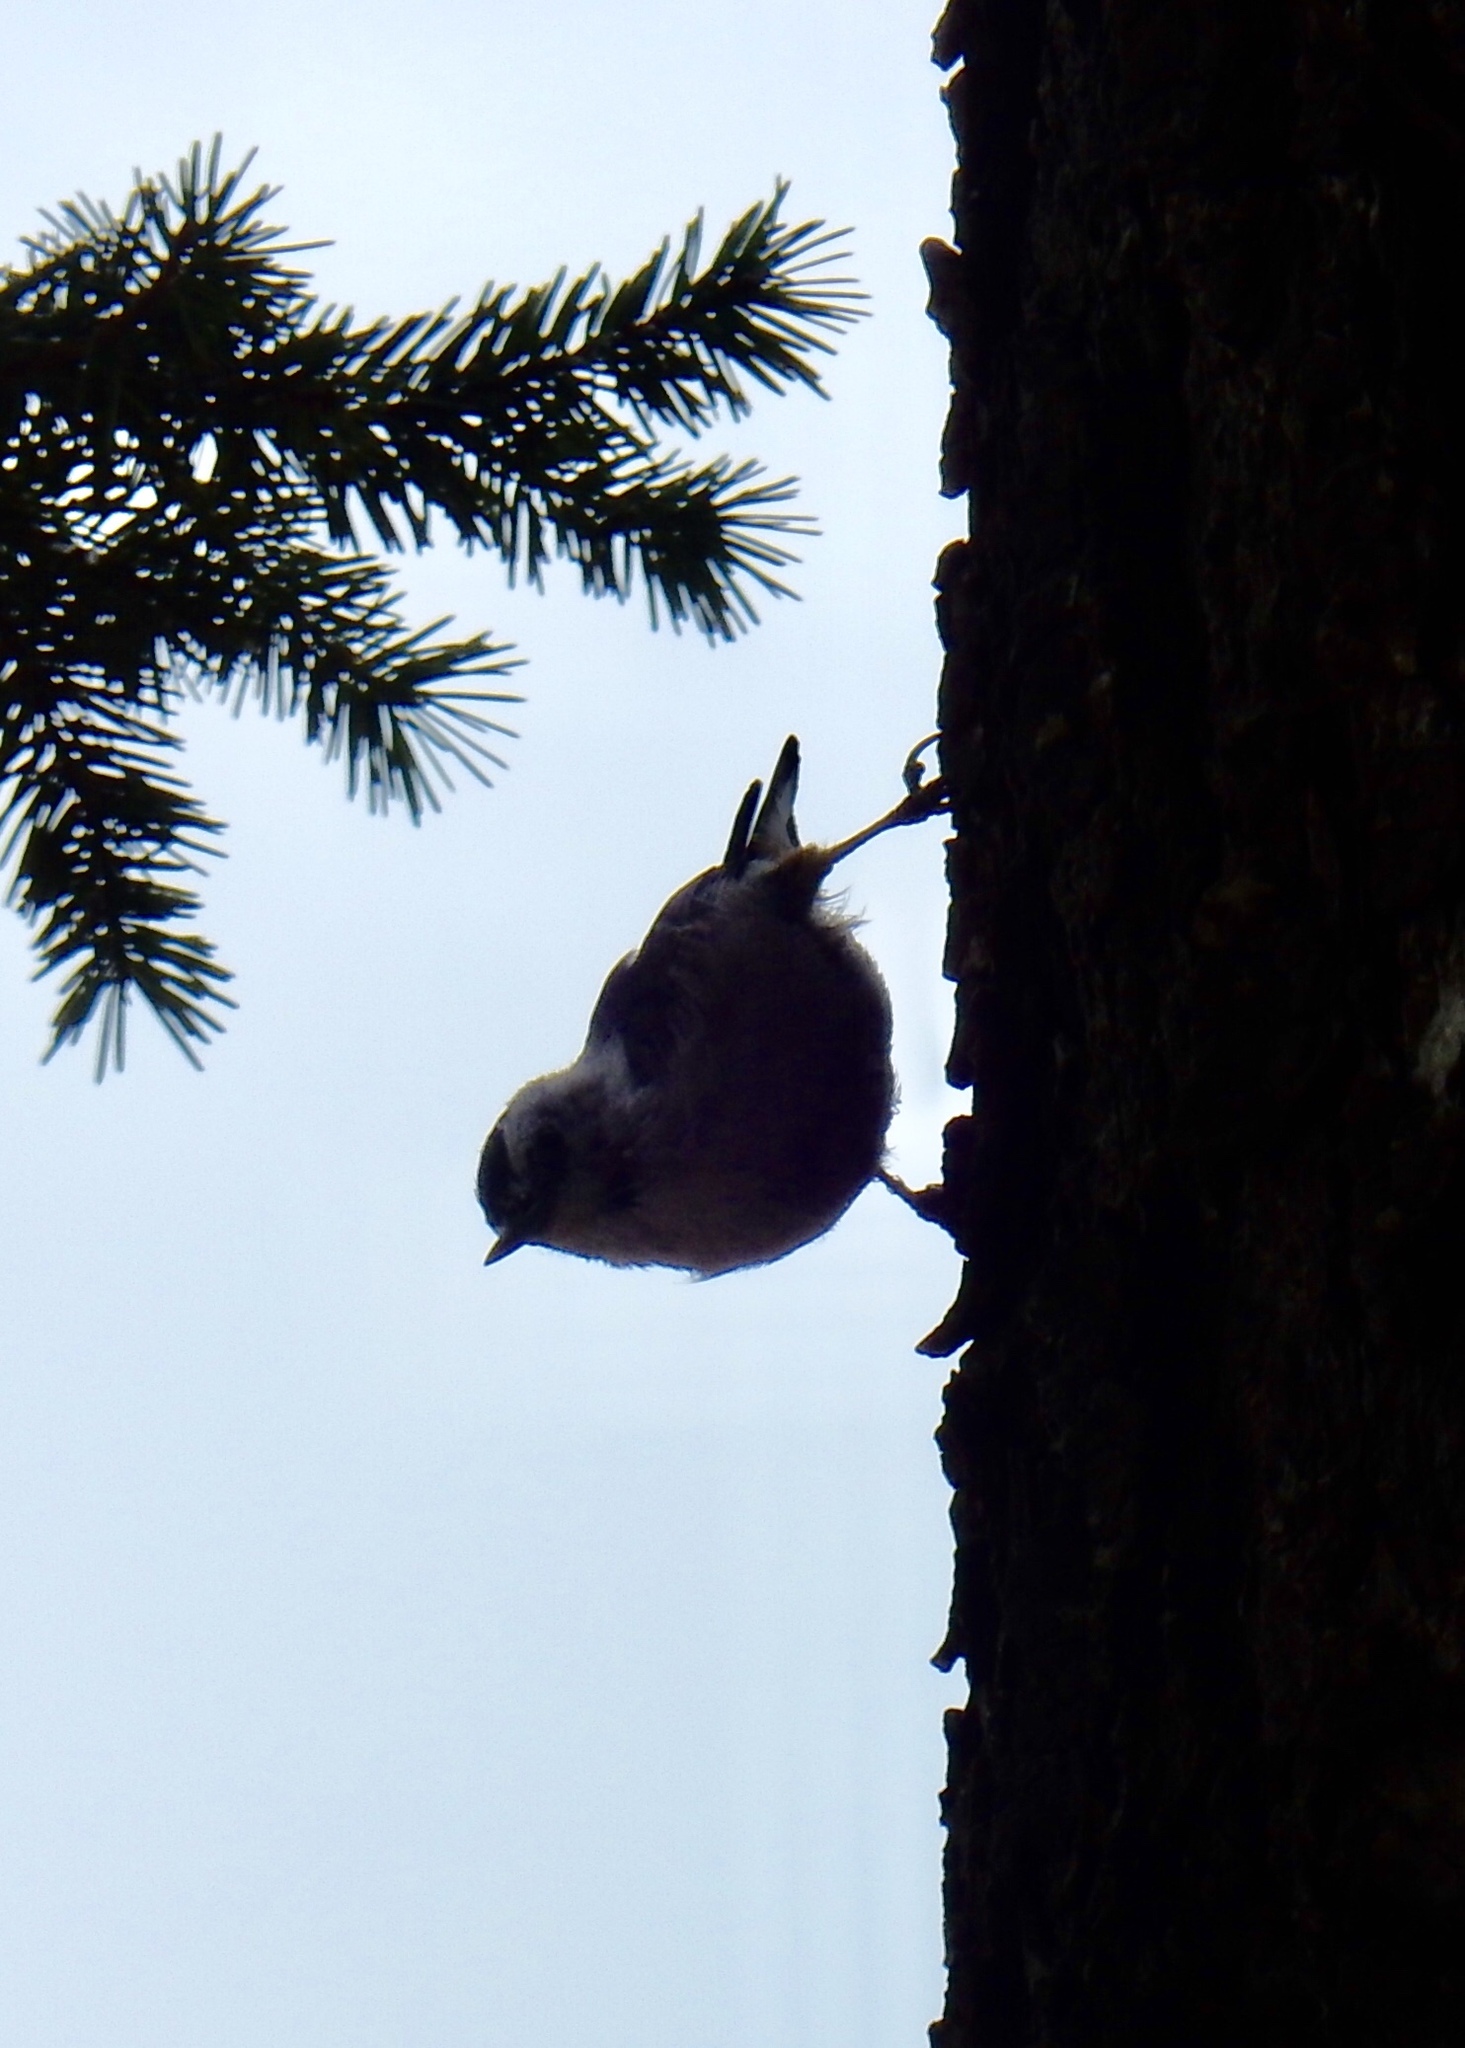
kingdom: Animalia
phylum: Chordata
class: Aves
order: Passeriformes
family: Sittidae
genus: Sitta
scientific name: Sitta carolinensis
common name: White-breasted nuthatch
